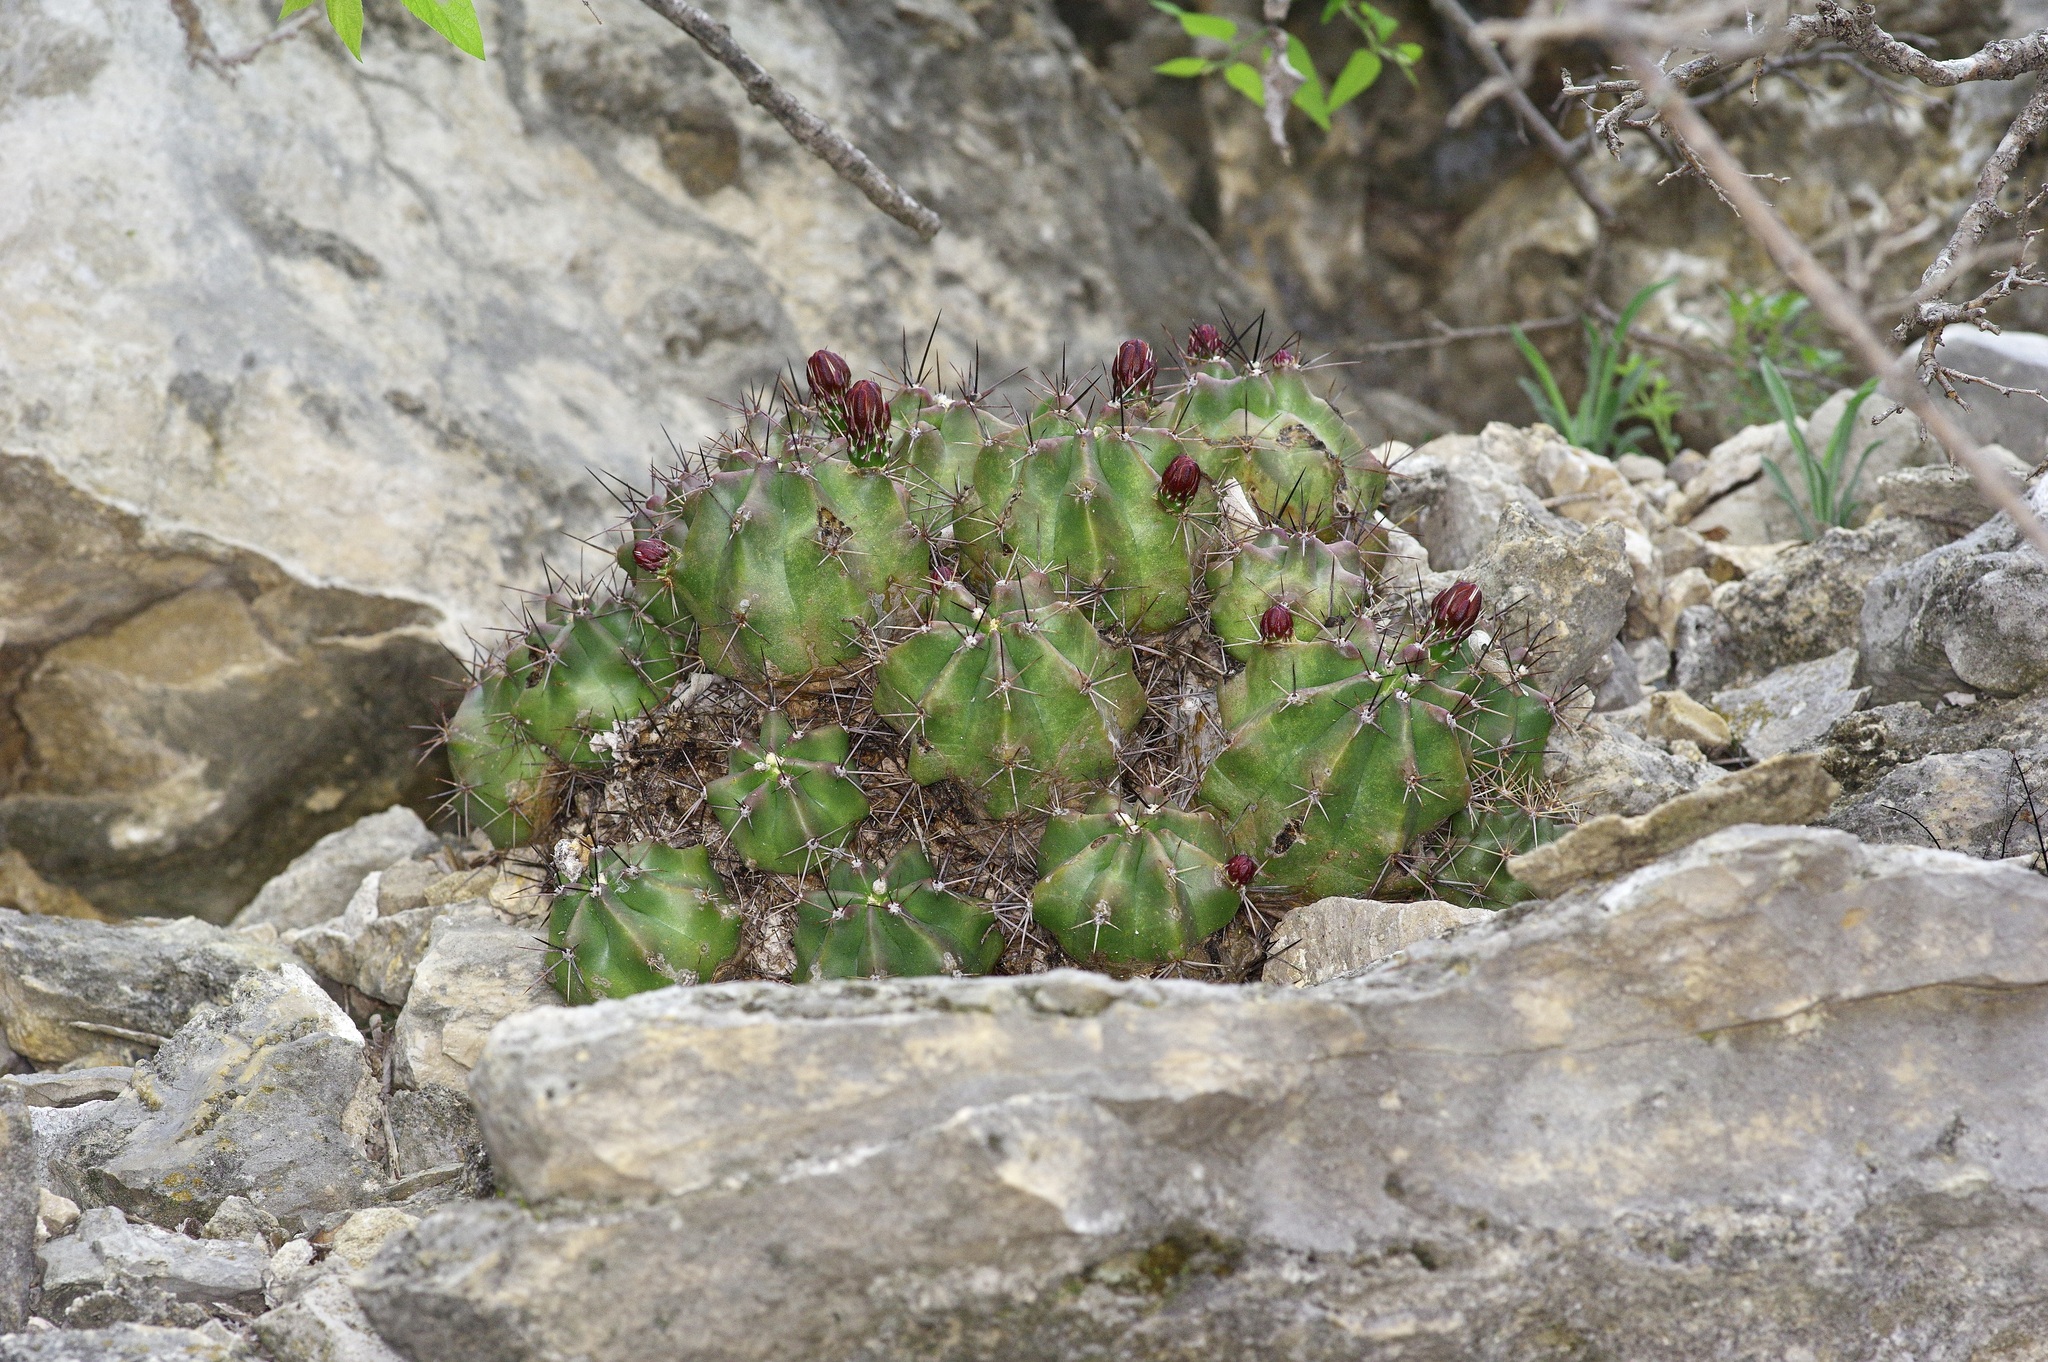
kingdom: Plantae
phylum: Tracheophyta
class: Magnoliopsida
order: Caryophyllales
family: Cactaceae
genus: Echinocereus
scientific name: Echinocereus coccineus
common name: Scarlet hedgehog cactus
